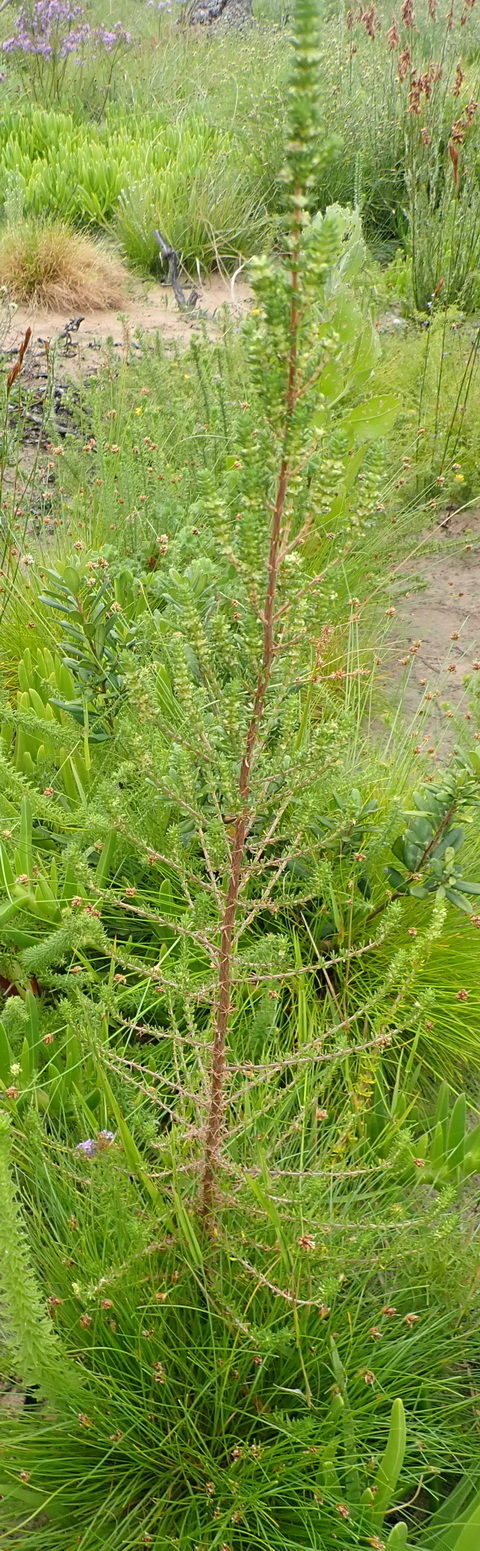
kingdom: Plantae
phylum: Tracheophyta
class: Magnoliopsida
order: Gentianales
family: Rubiaceae
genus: Anthospermum
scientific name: Anthospermum aethiopicum
